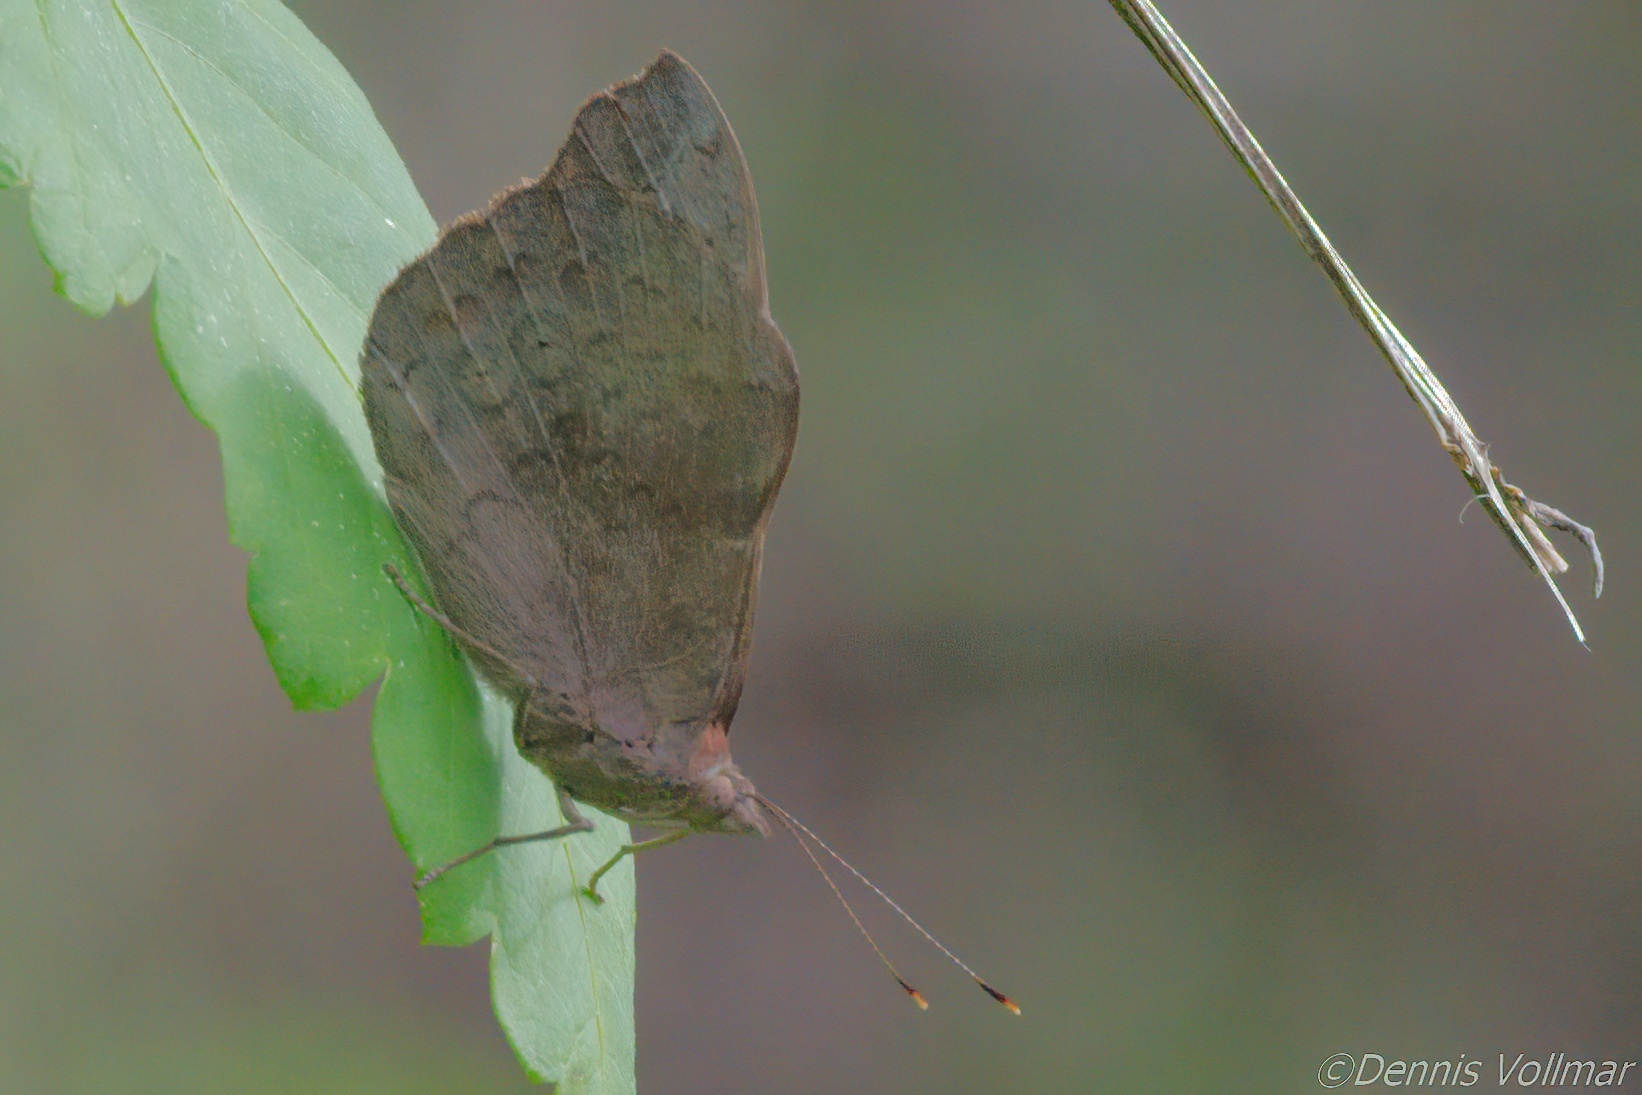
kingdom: Animalia
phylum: Arthropoda
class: Insecta
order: Lepidoptera
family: Nymphalidae
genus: Eunica
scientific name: Eunica tatila
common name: Florida purplewing
